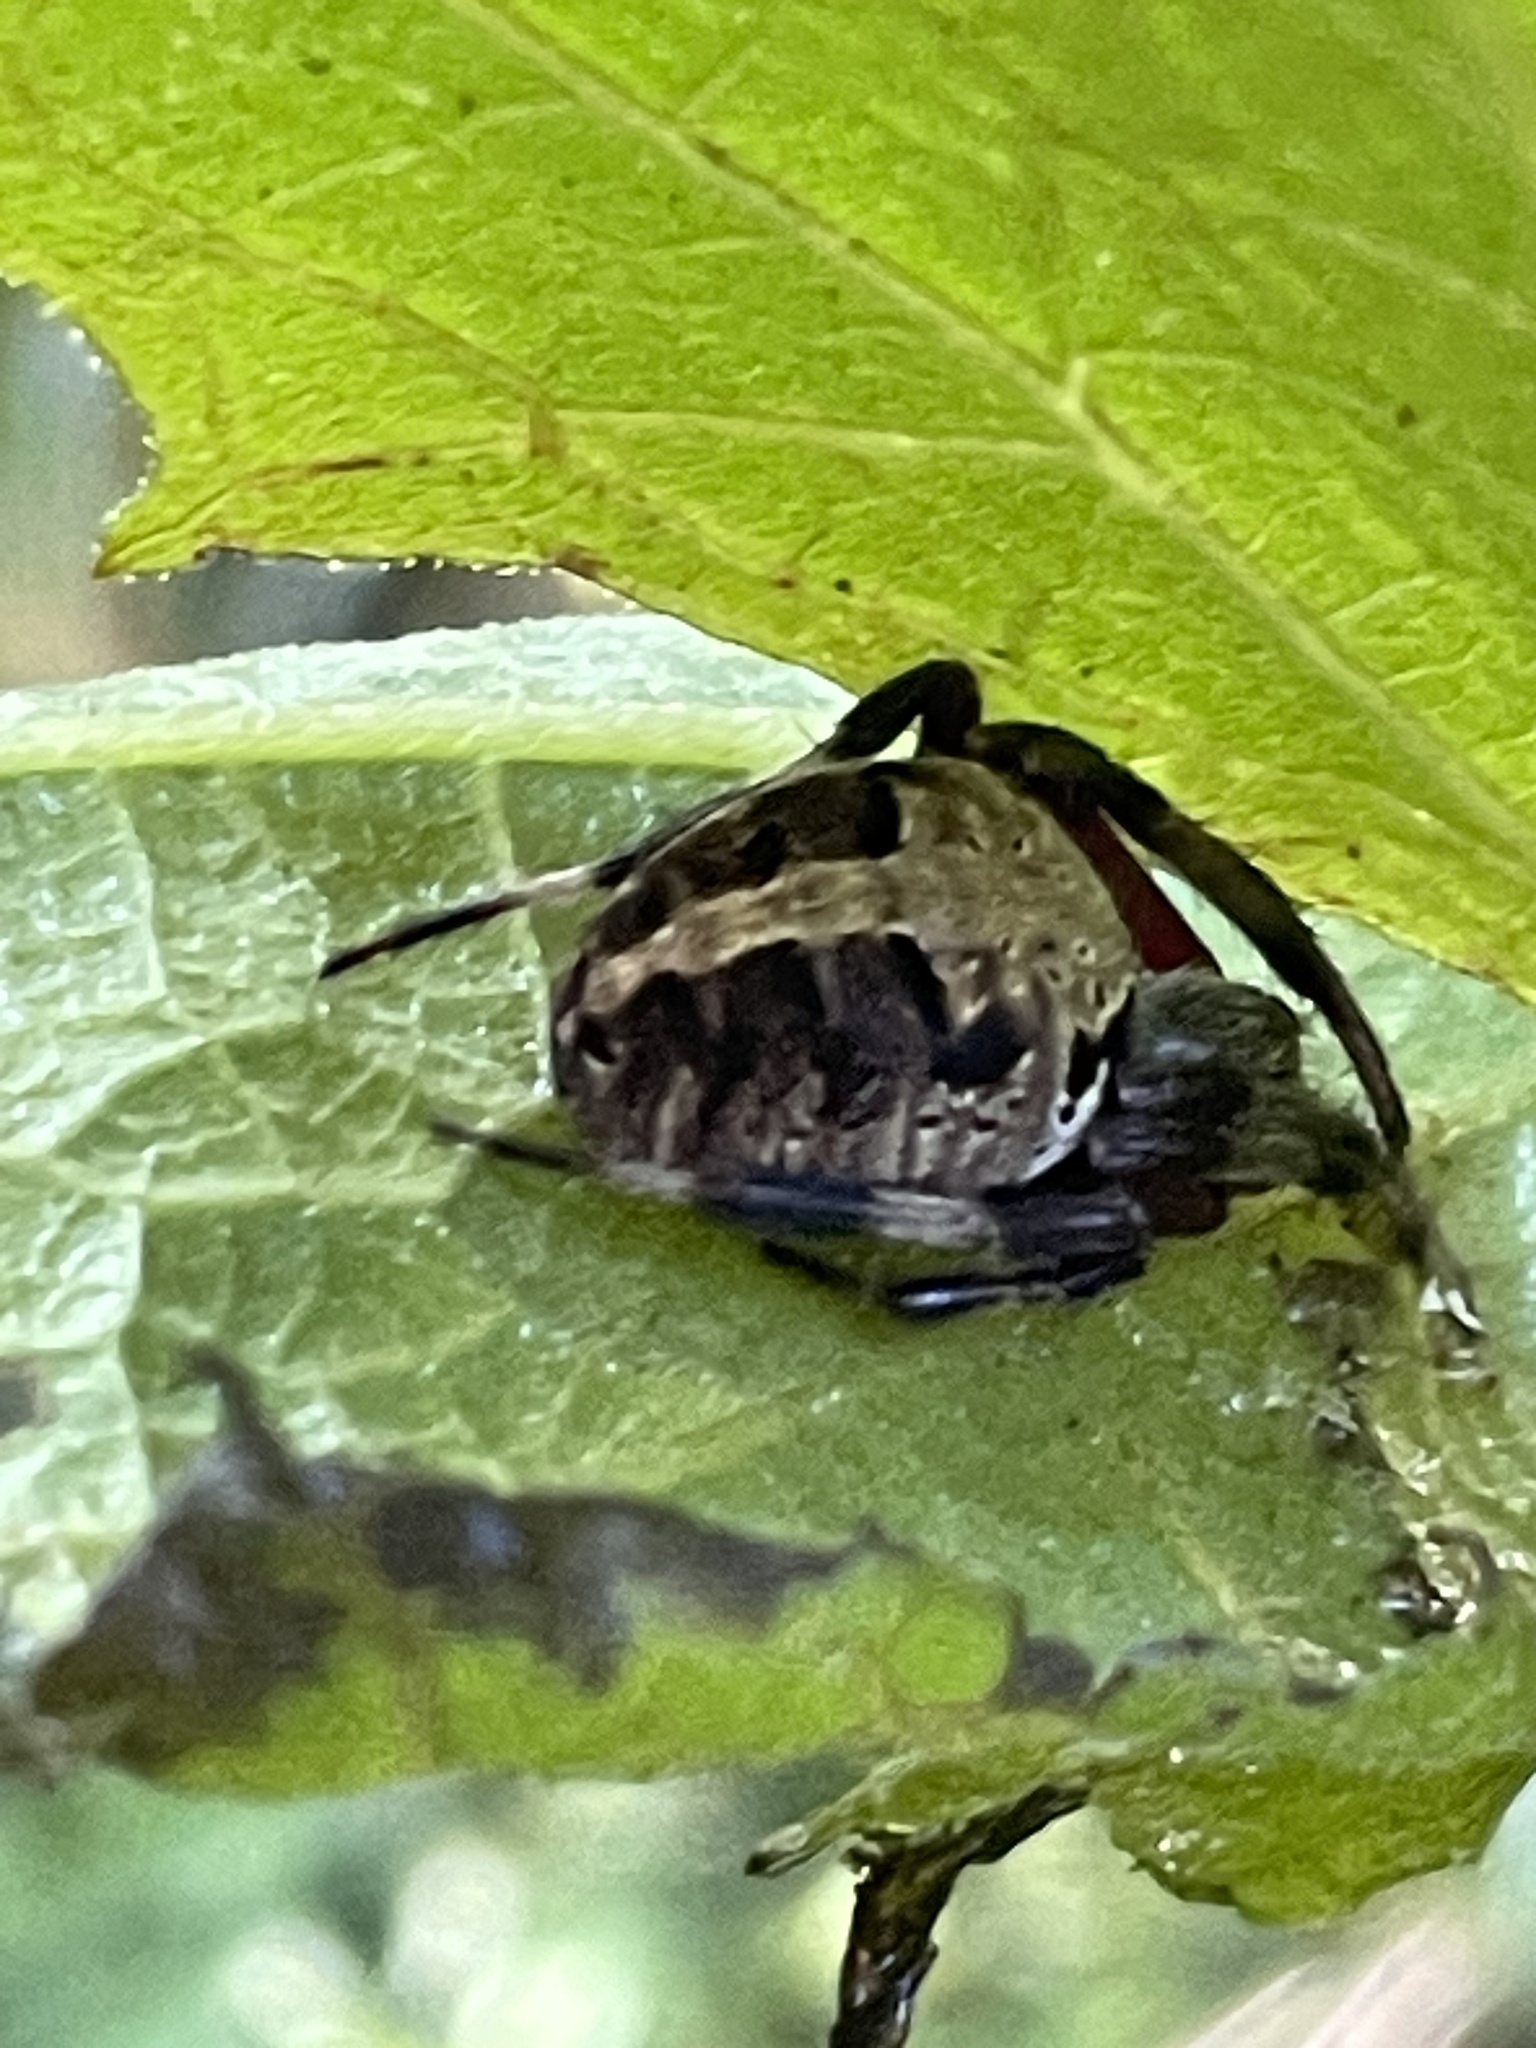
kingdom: Animalia
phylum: Arthropoda
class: Arachnida
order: Araneae
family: Araneidae
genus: Neoscona
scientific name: Neoscona domiciliorum
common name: Red-femured spotted orbweaver
